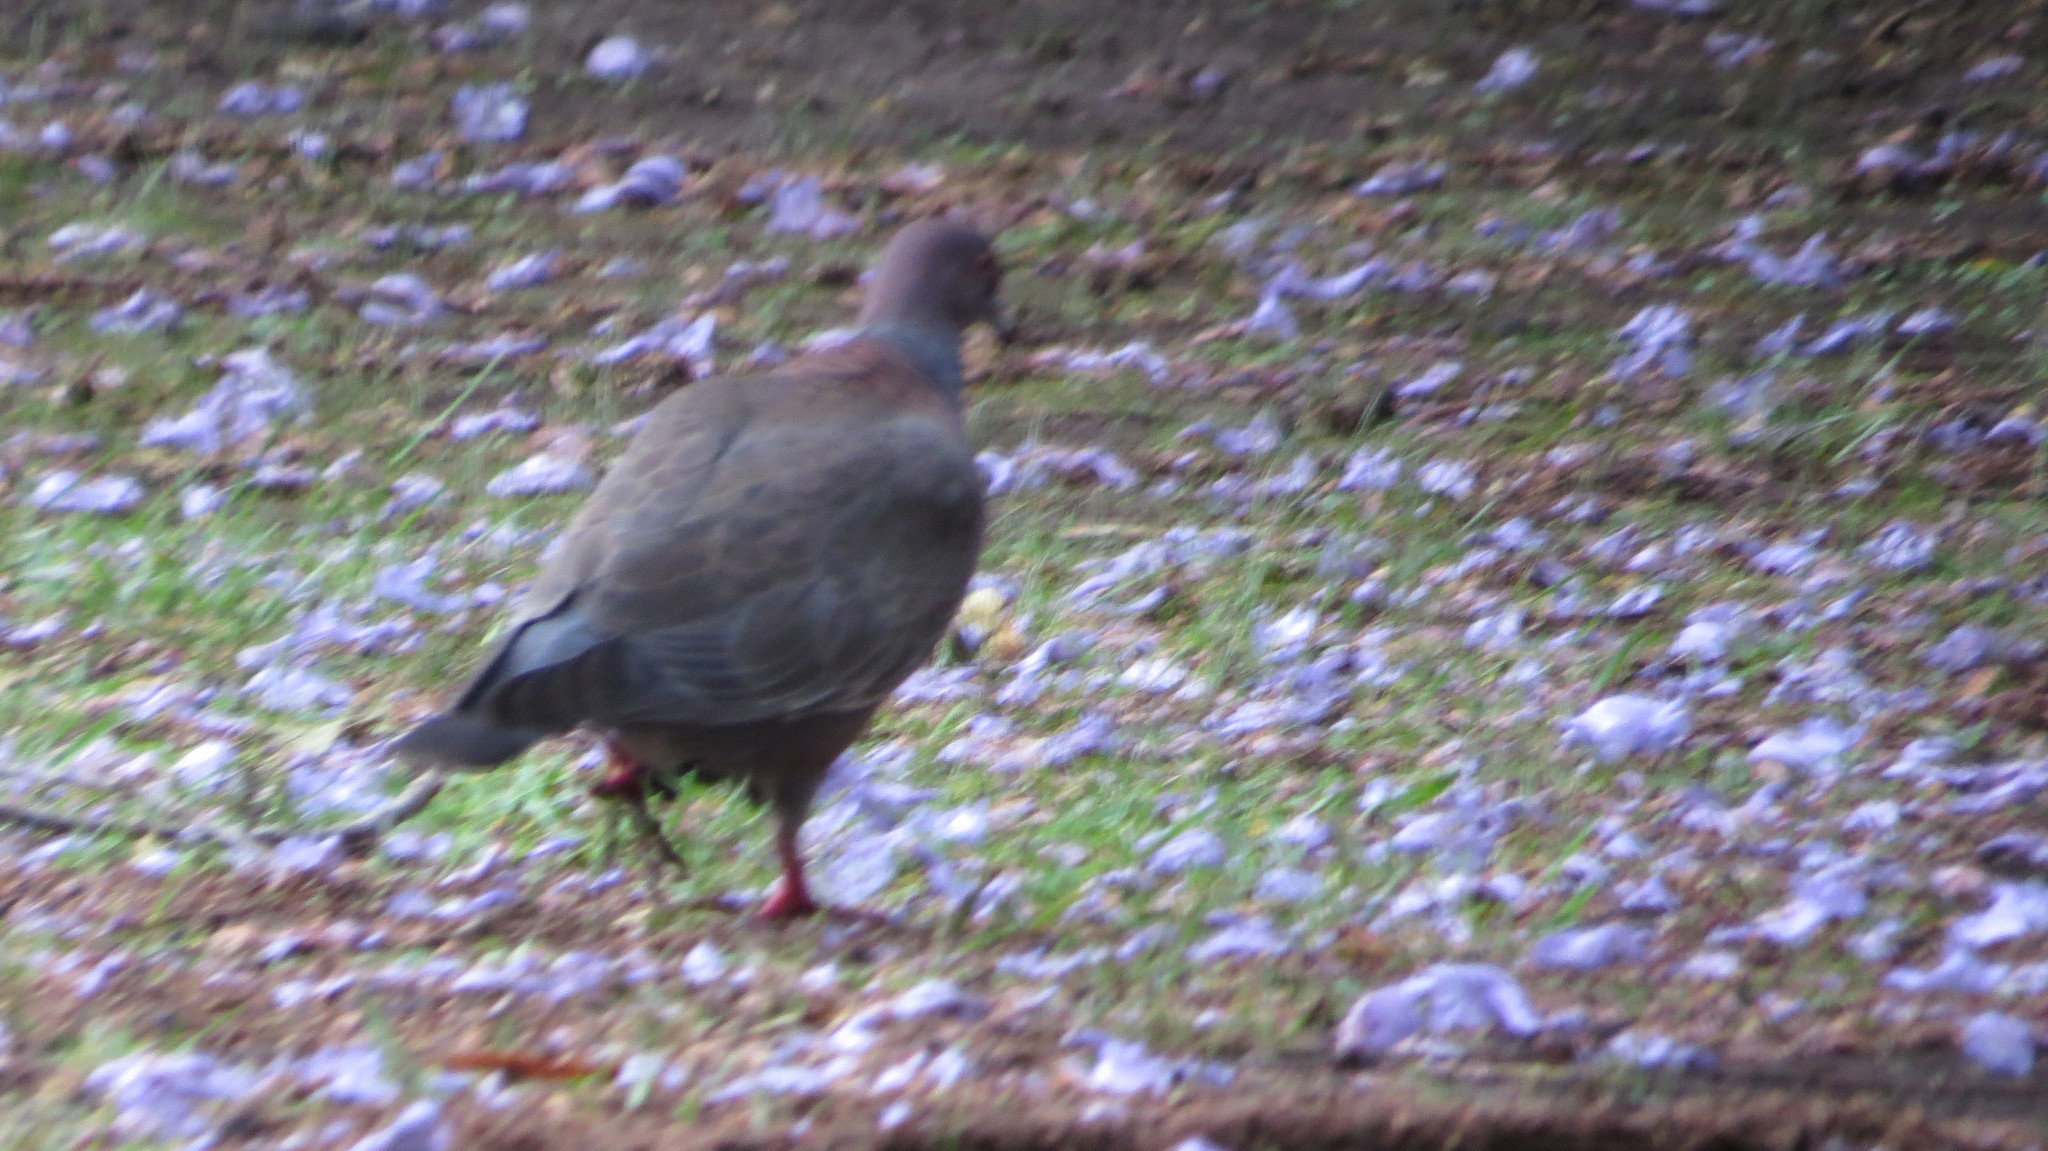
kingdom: Animalia
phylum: Chordata
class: Aves
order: Columbiformes
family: Columbidae
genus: Patagioenas
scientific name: Patagioenas picazuro
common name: Picazuro pigeon
